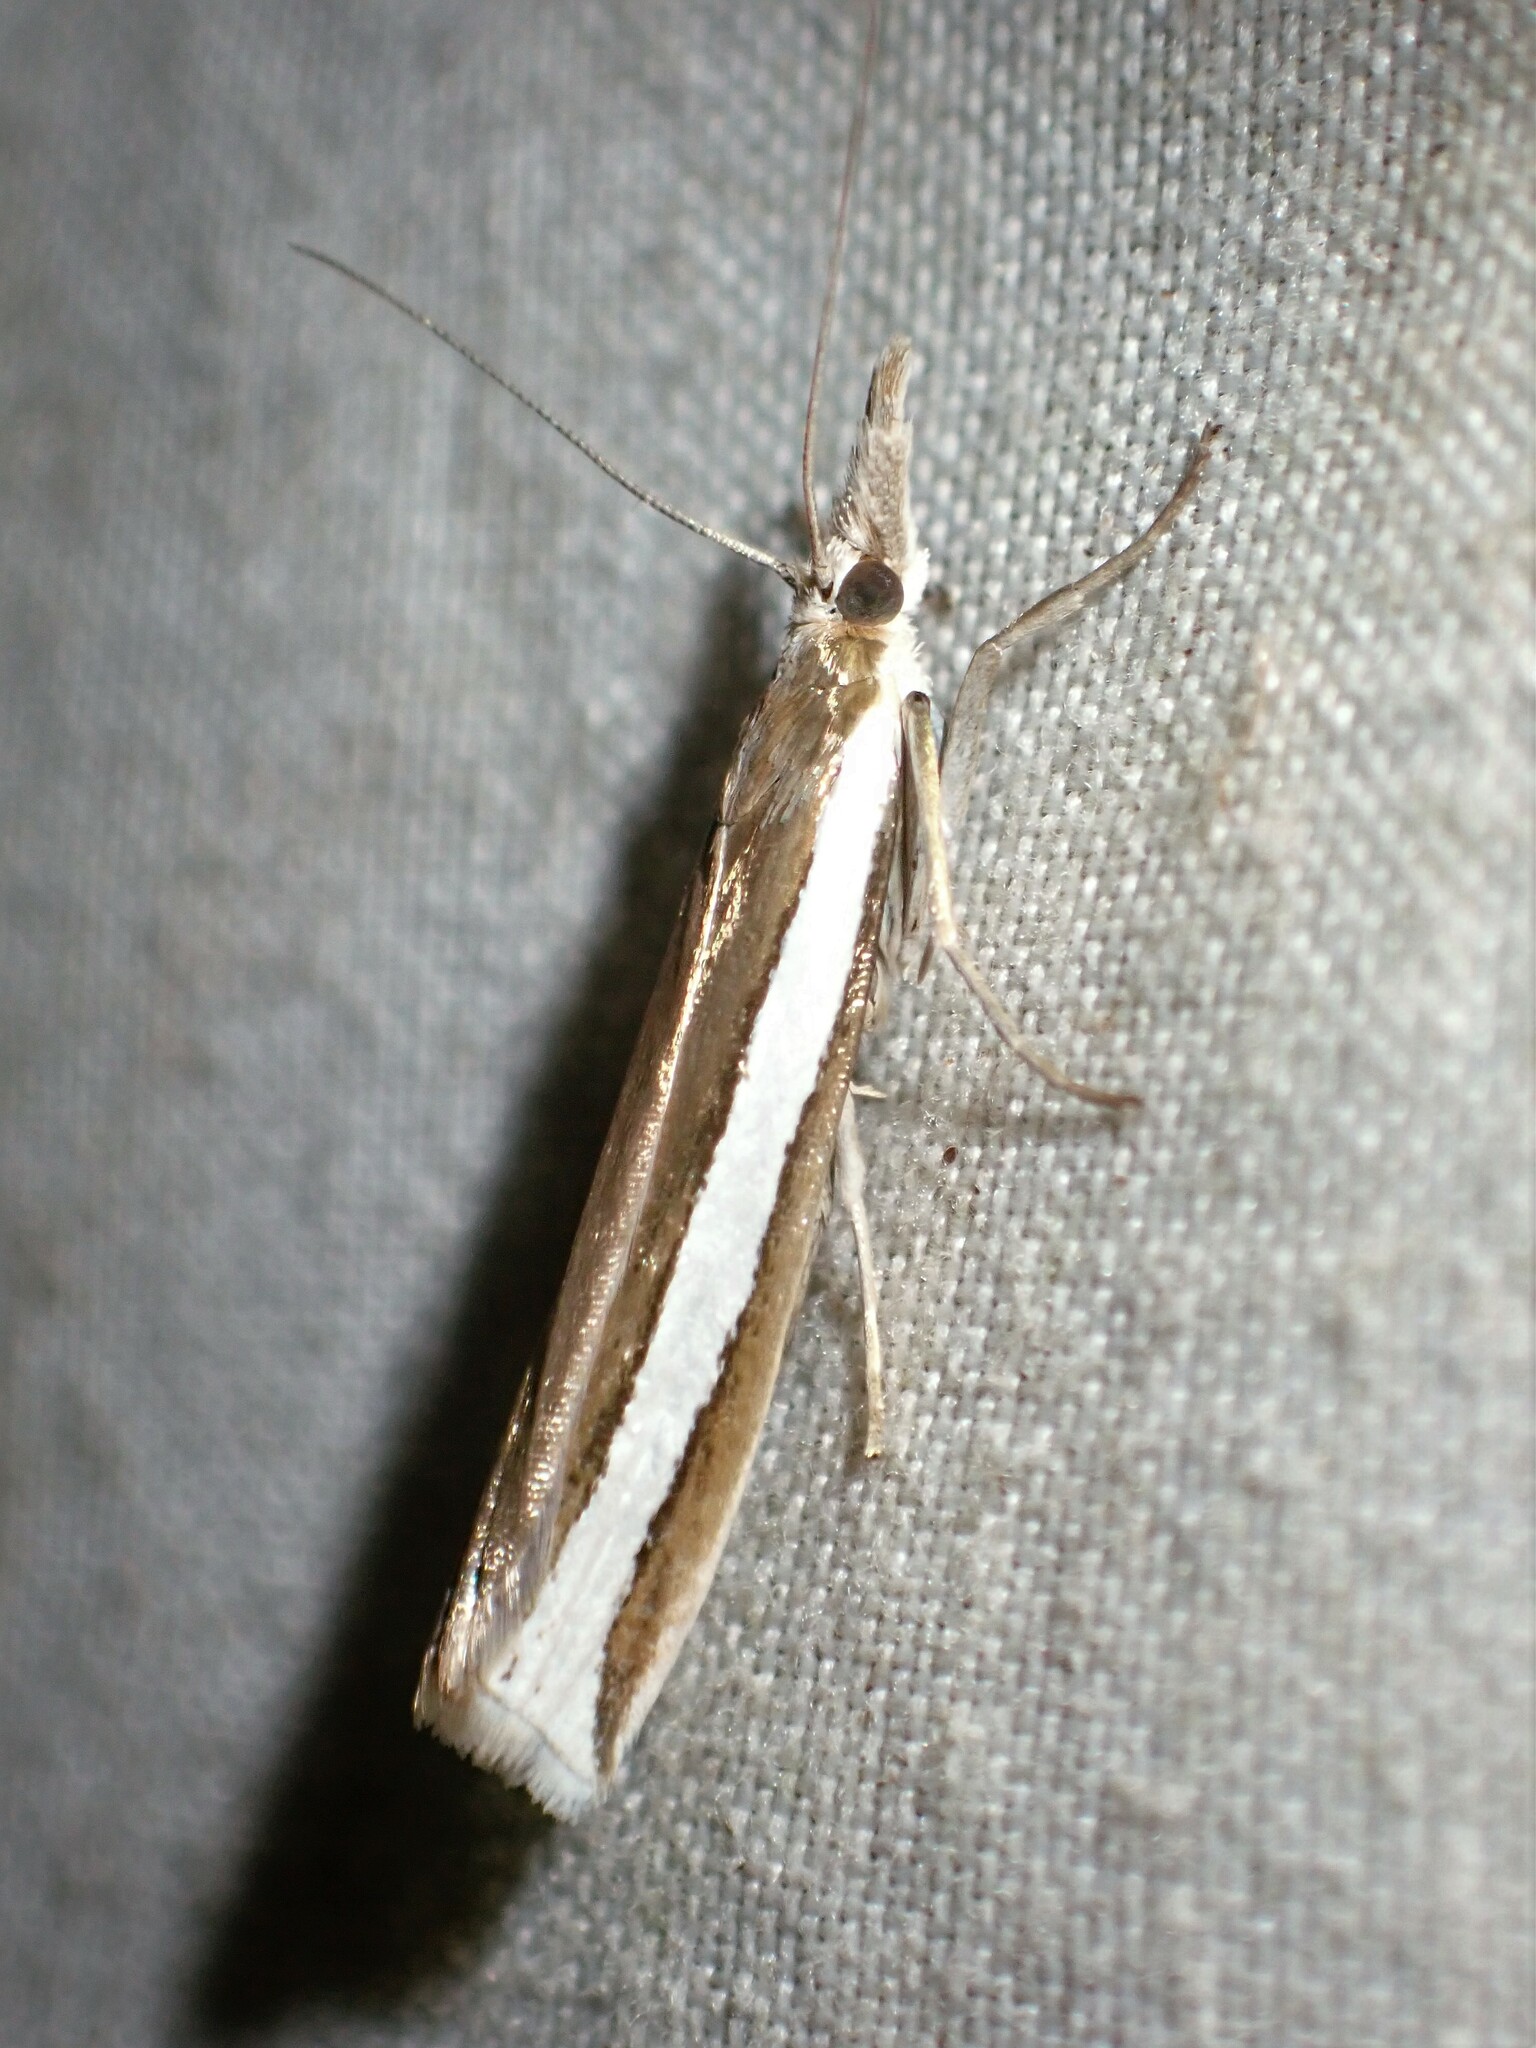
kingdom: Animalia
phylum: Arthropoda
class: Insecta
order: Lepidoptera
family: Crambidae
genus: Crambus
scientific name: Crambus unistriatellus
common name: Wide-stripe grass-veneer moth
